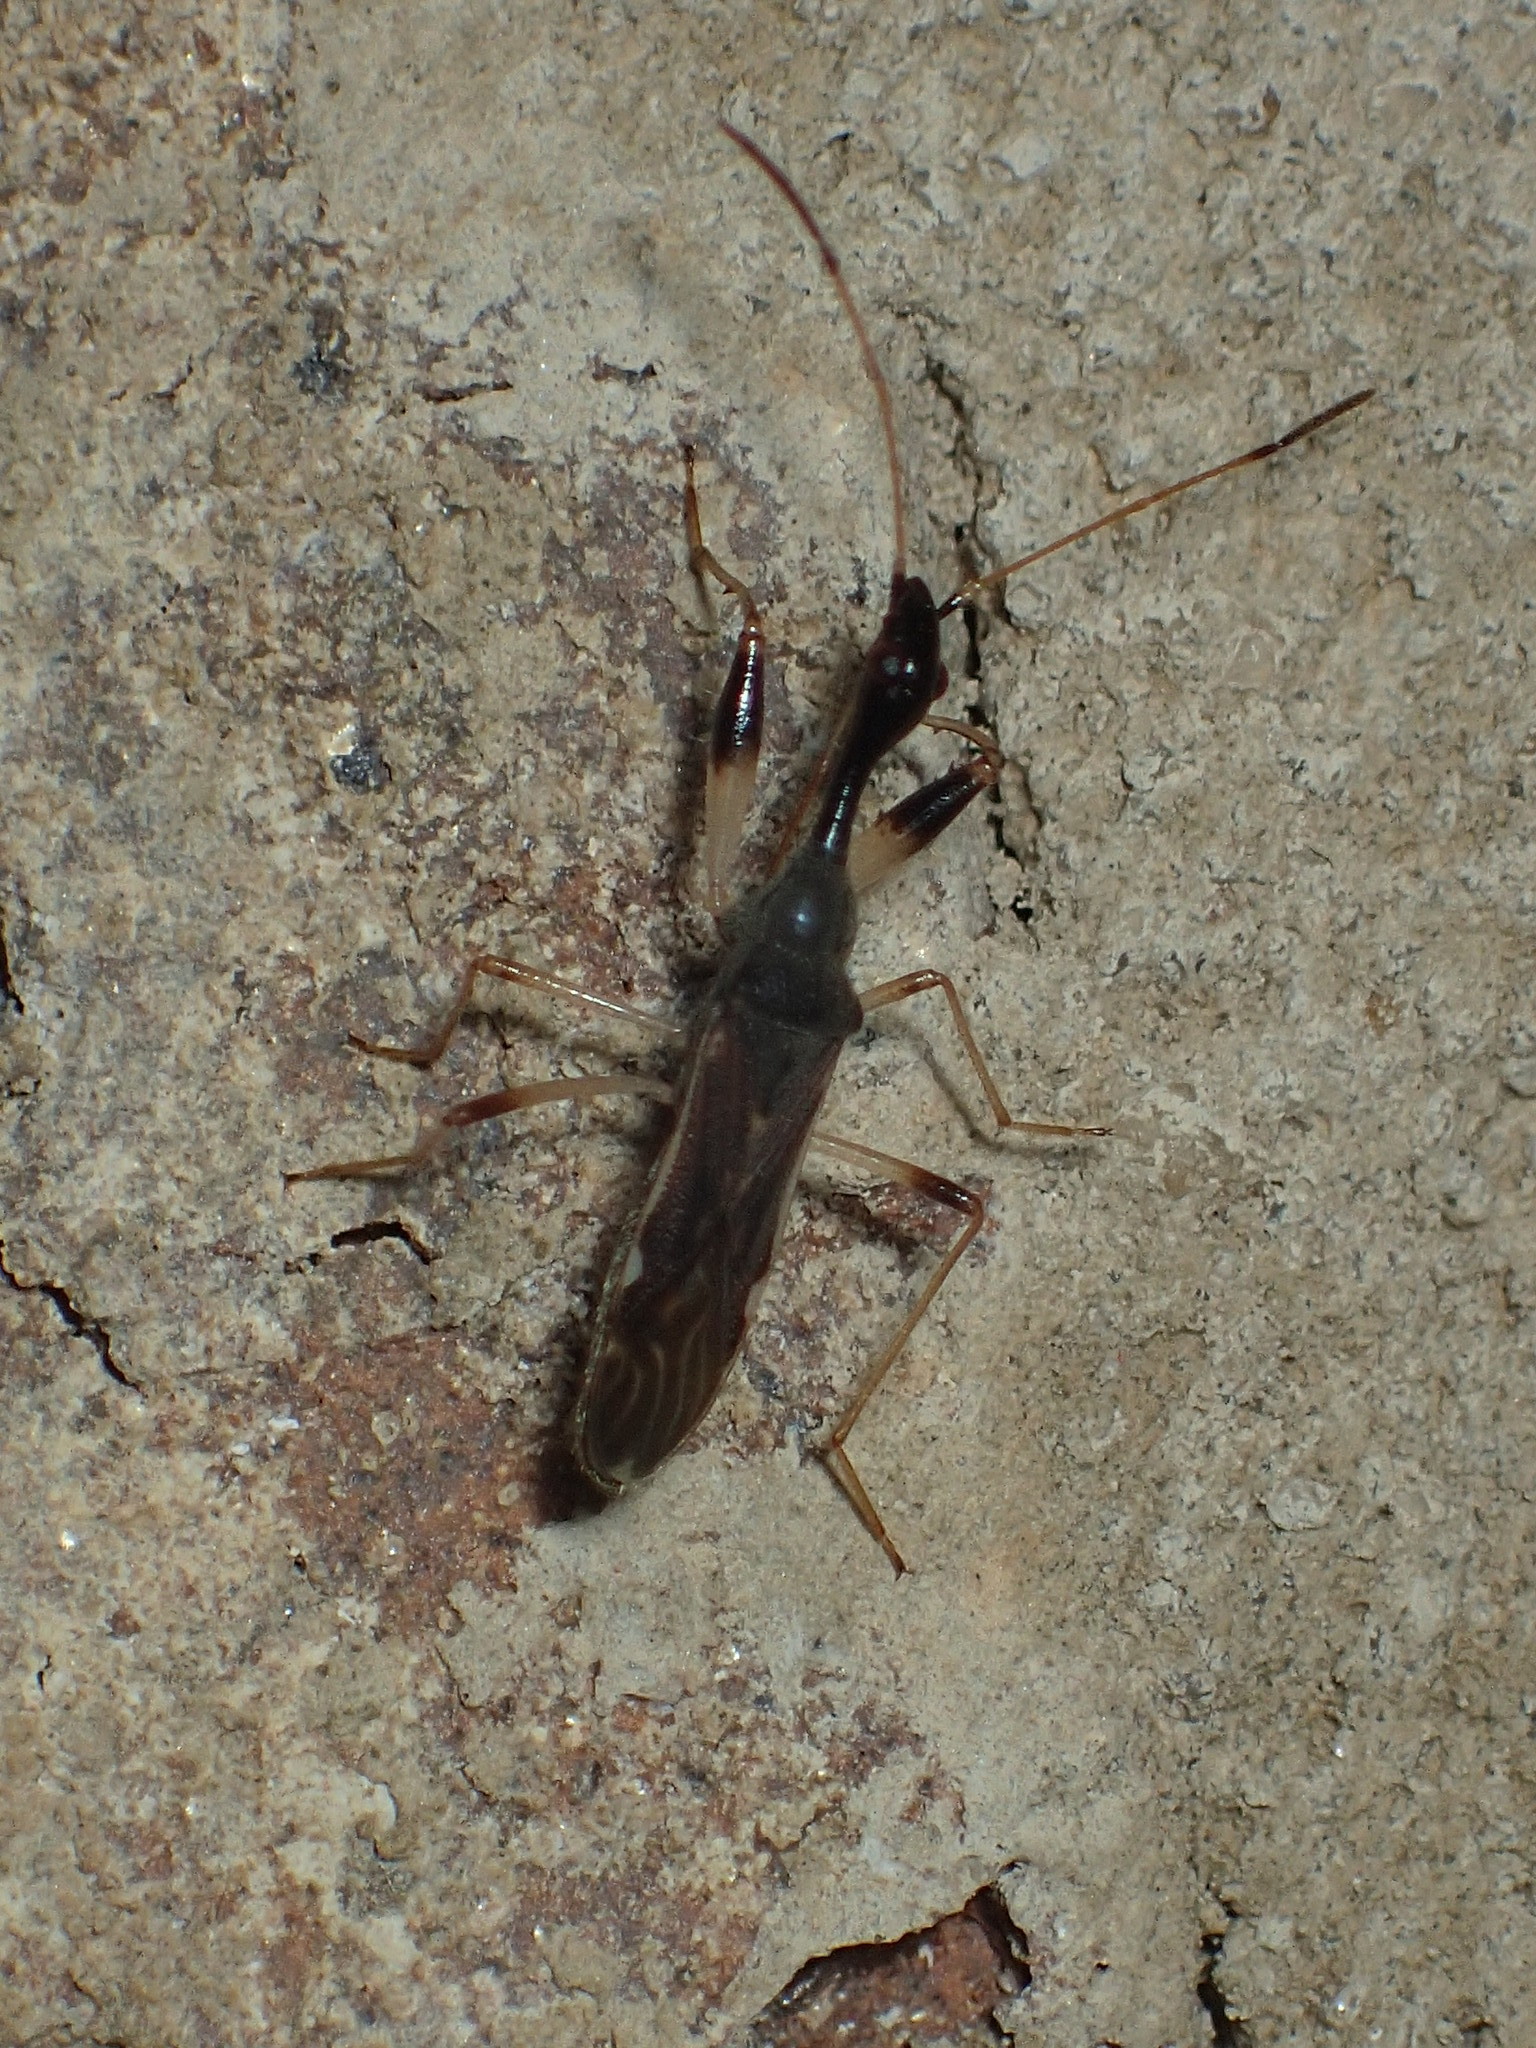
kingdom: Animalia
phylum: Arthropoda
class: Insecta
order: Hemiptera
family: Rhyparochromidae
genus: Myodocha
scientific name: Myodocha serripes
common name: Long-necked seed bug
